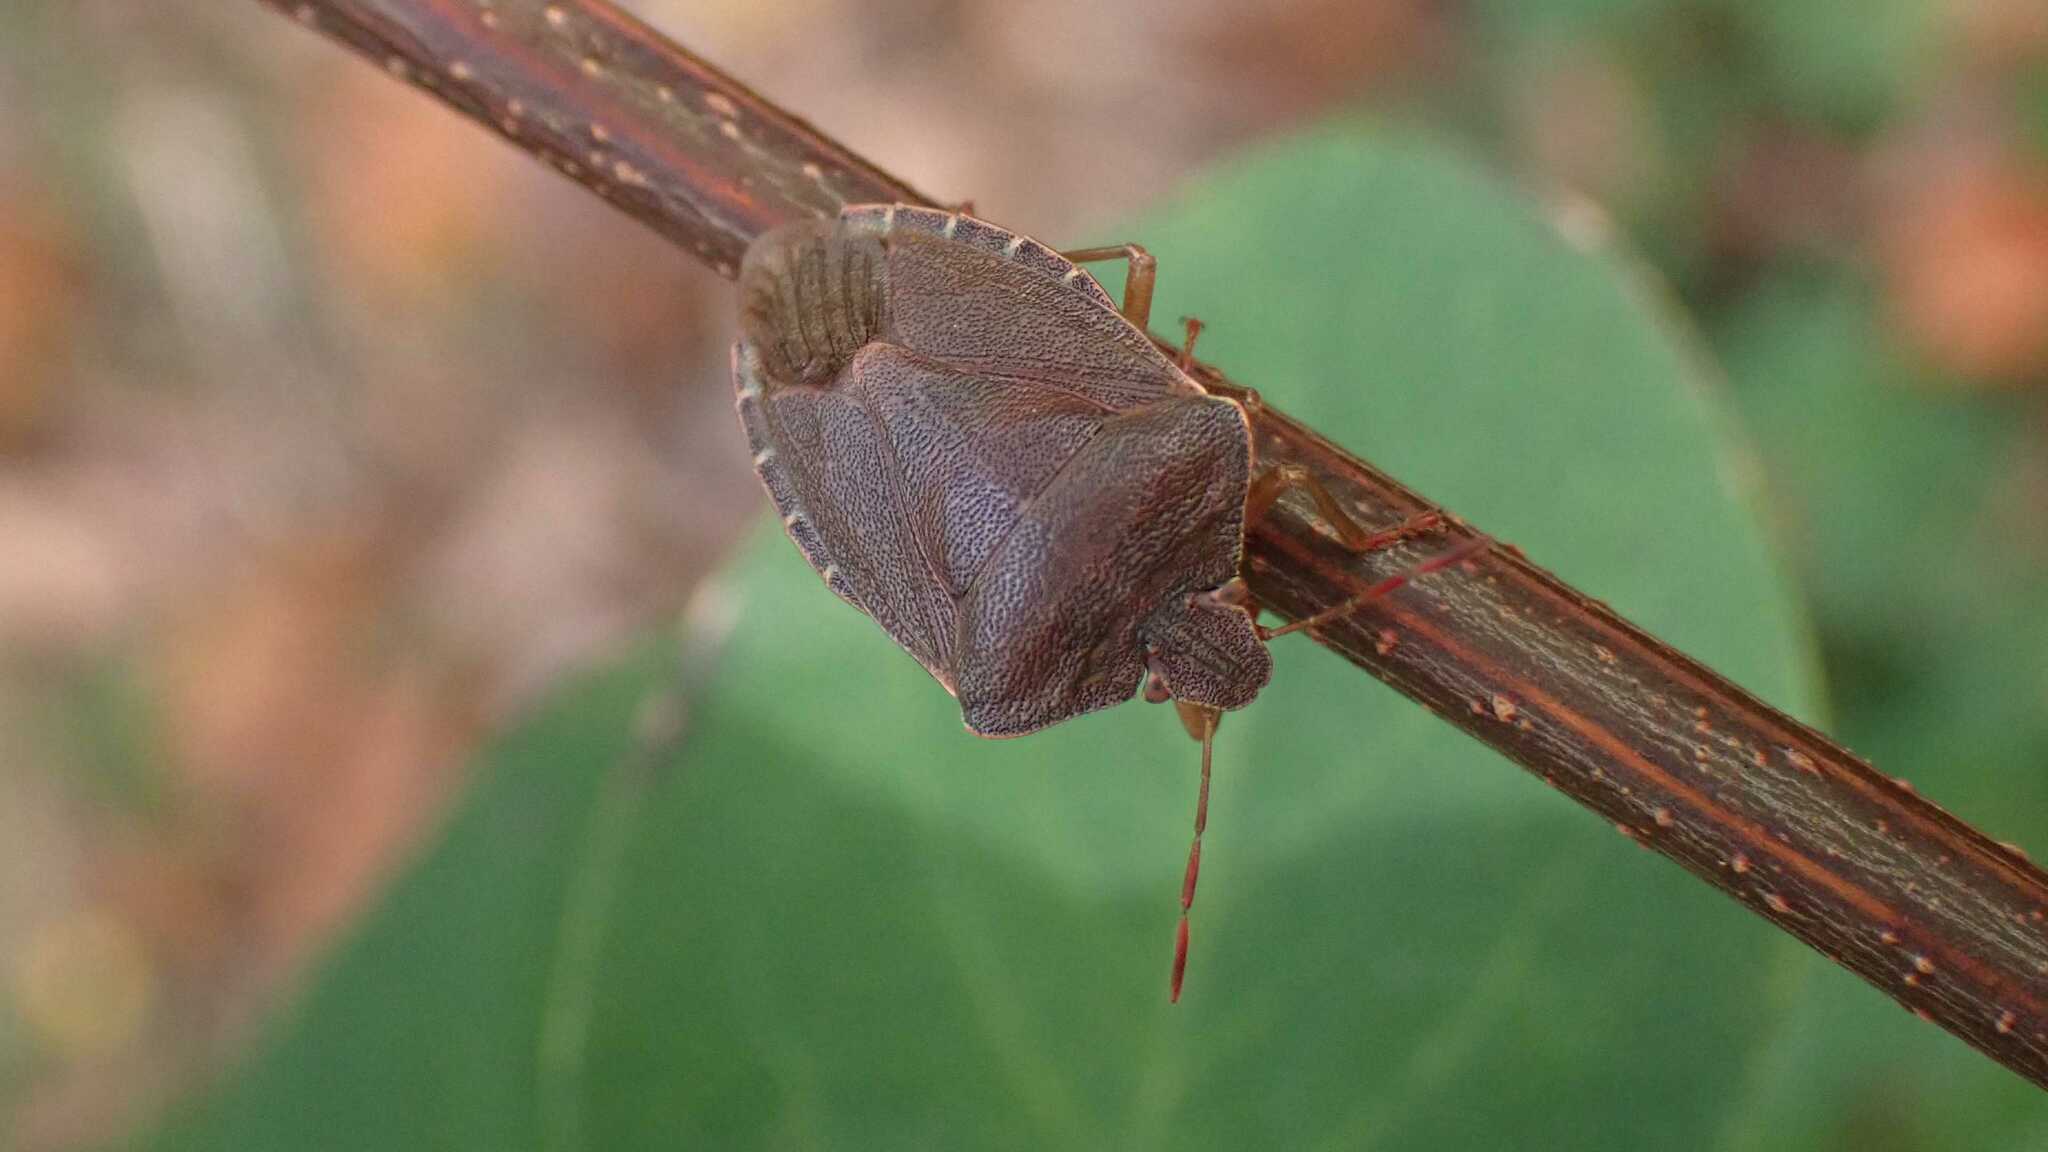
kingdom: Animalia
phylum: Arthropoda
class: Insecta
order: Hemiptera
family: Pentatomidae
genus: Palomena
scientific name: Palomena prasina
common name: Green shieldbug
